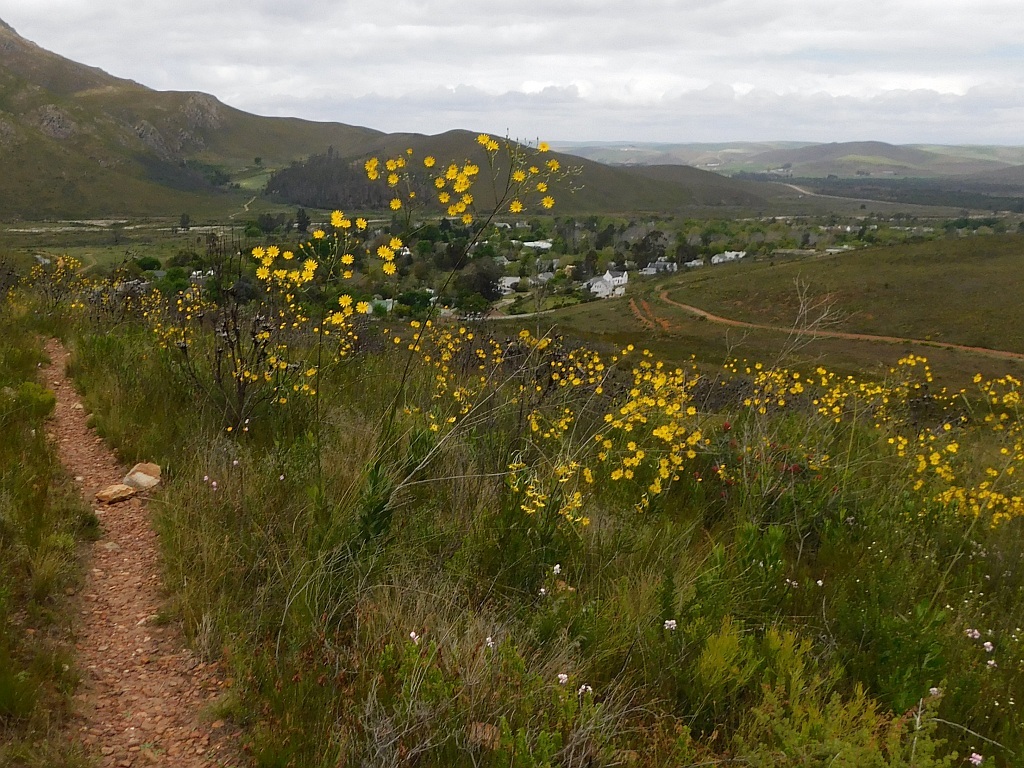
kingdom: Plantae
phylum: Tracheophyta
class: Magnoliopsida
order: Asterales
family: Asteraceae
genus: Osteospermum
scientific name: Osteospermum junceum
